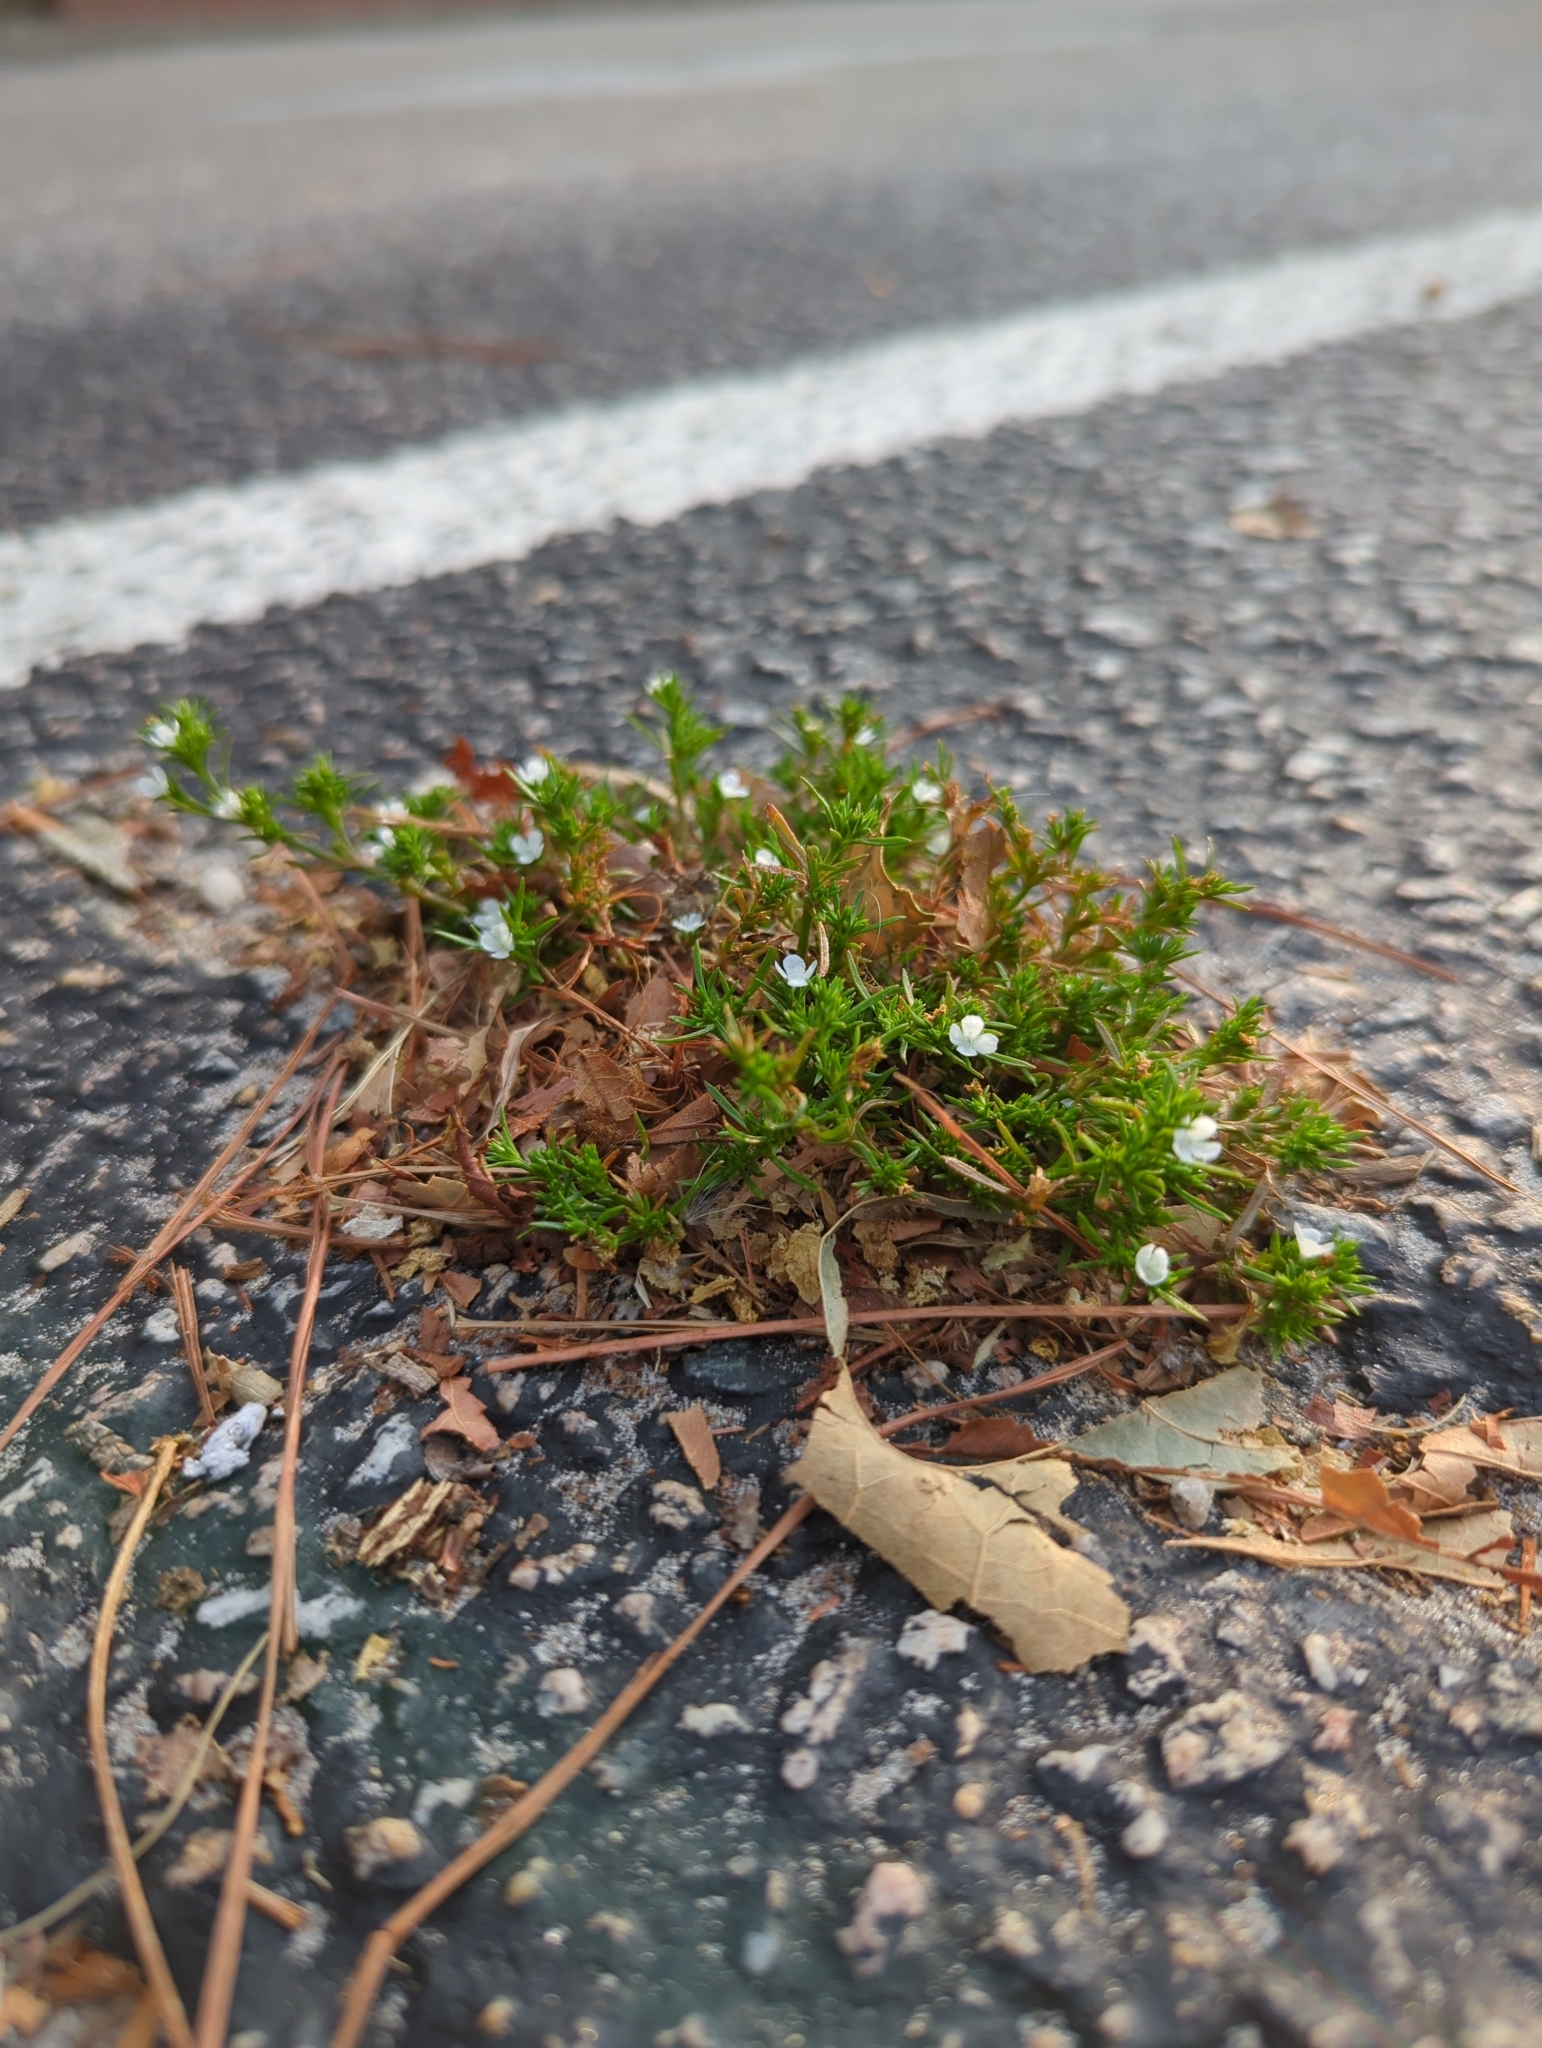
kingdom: Plantae
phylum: Tracheophyta
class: Magnoliopsida
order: Lamiales
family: Tetrachondraceae
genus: Polypremum
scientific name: Polypremum procumbens
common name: Juniper-leaf
